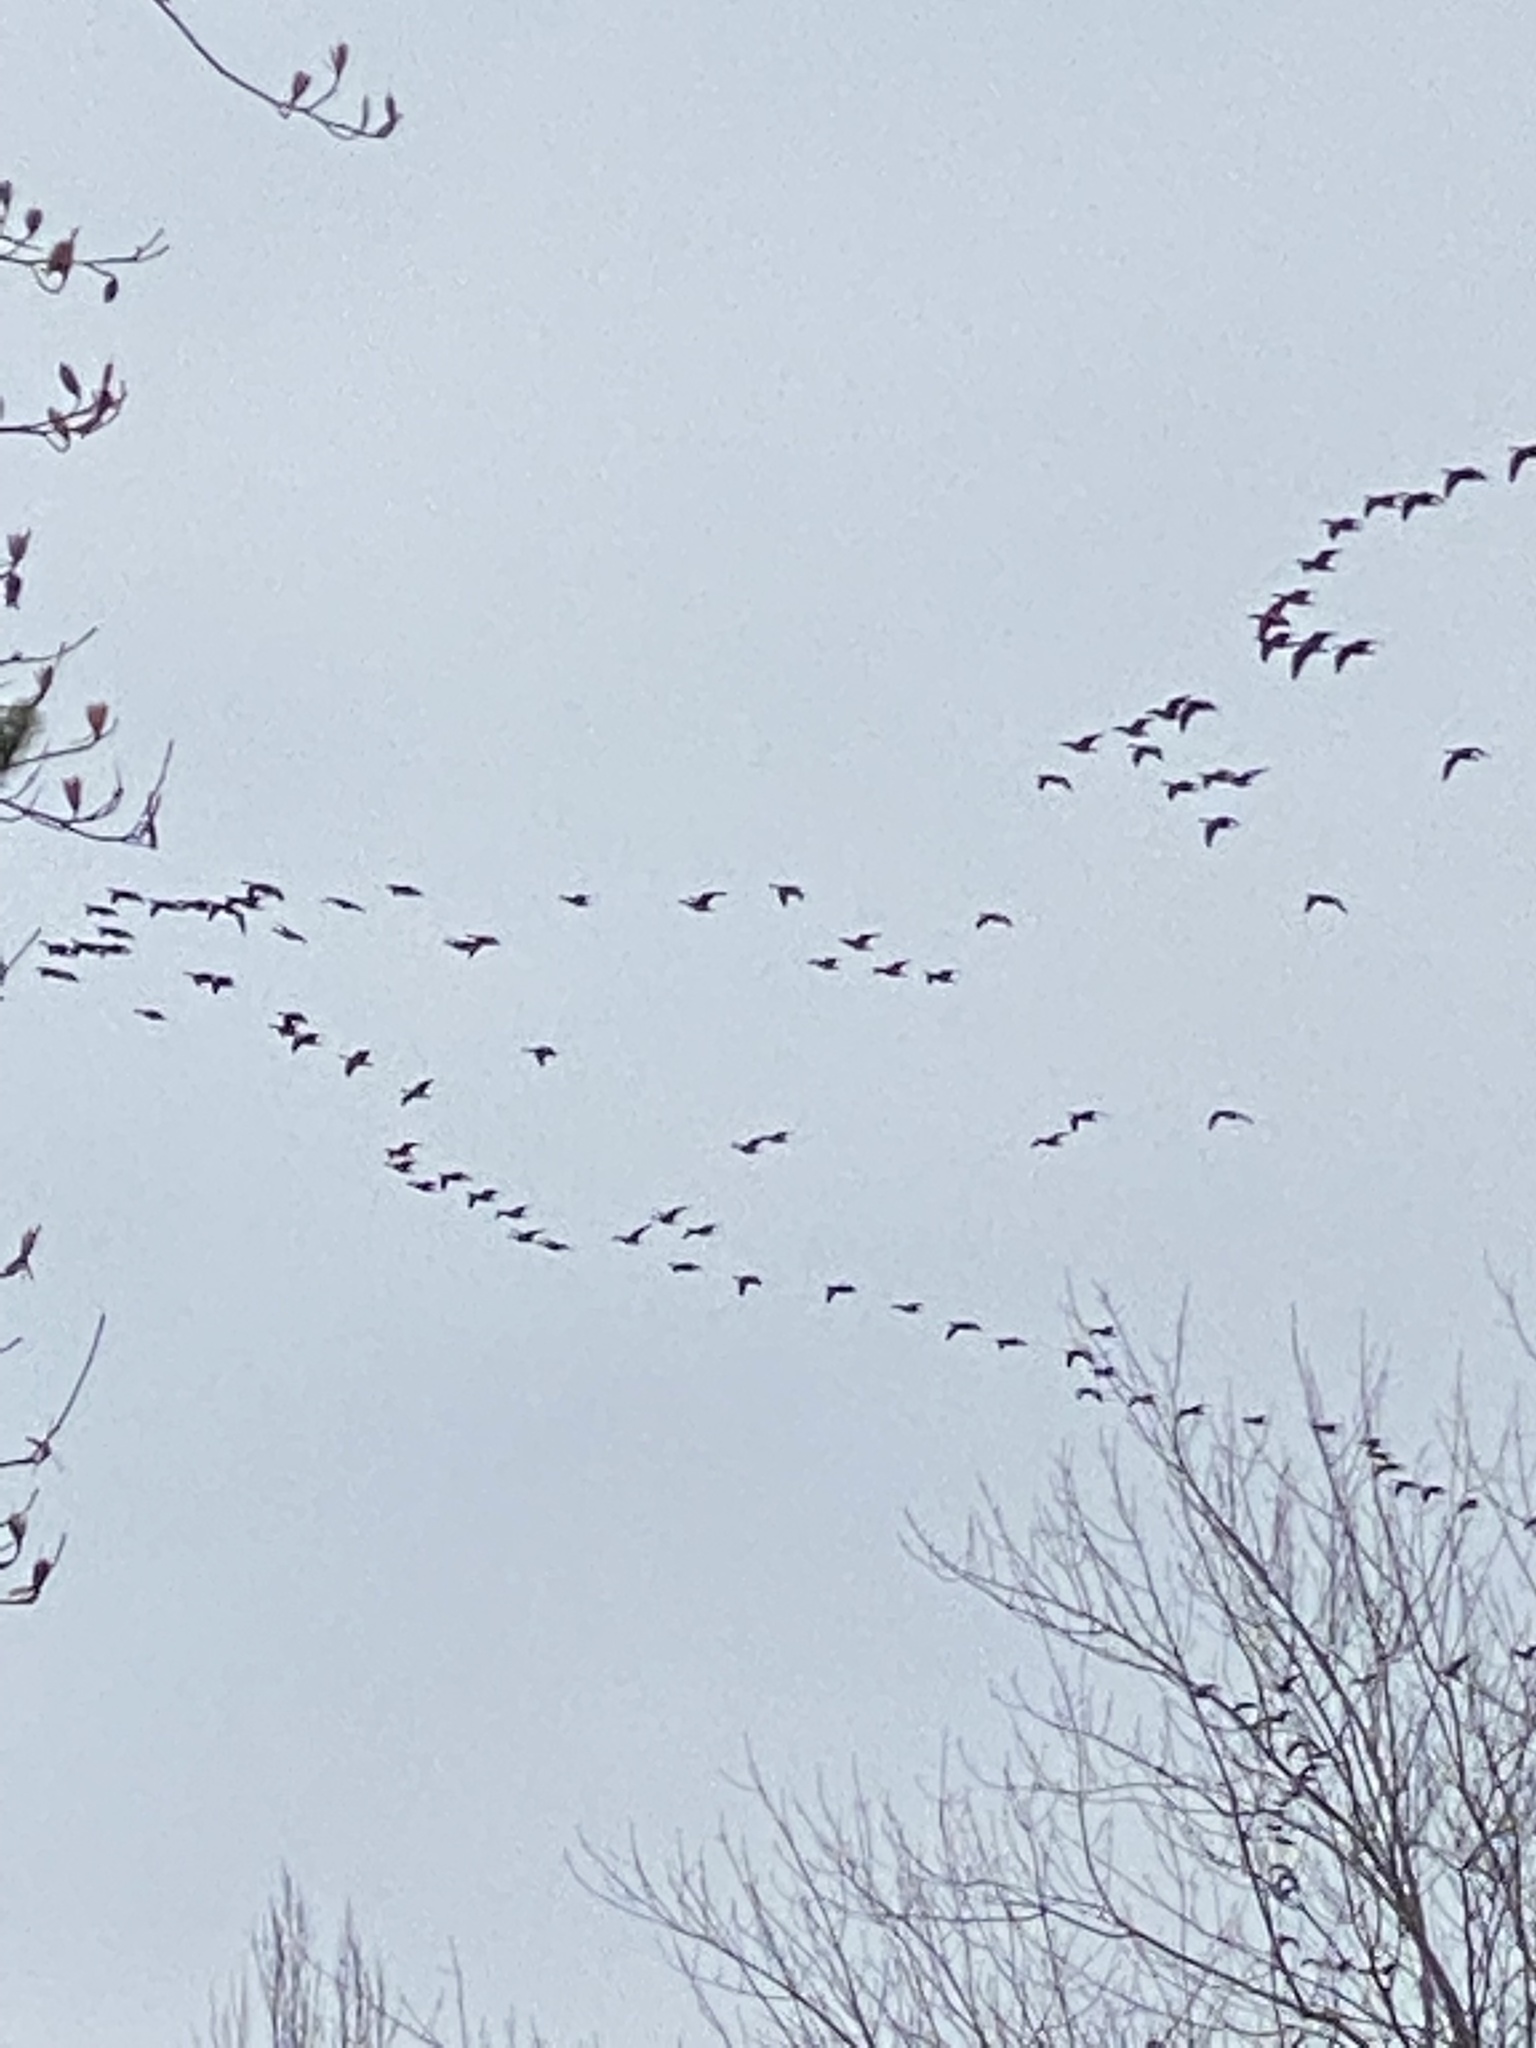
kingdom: Animalia
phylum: Chordata
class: Aves
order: Anseriformes
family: Anatidae
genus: Branta
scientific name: Branta hutchinsii
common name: Cackling goose
